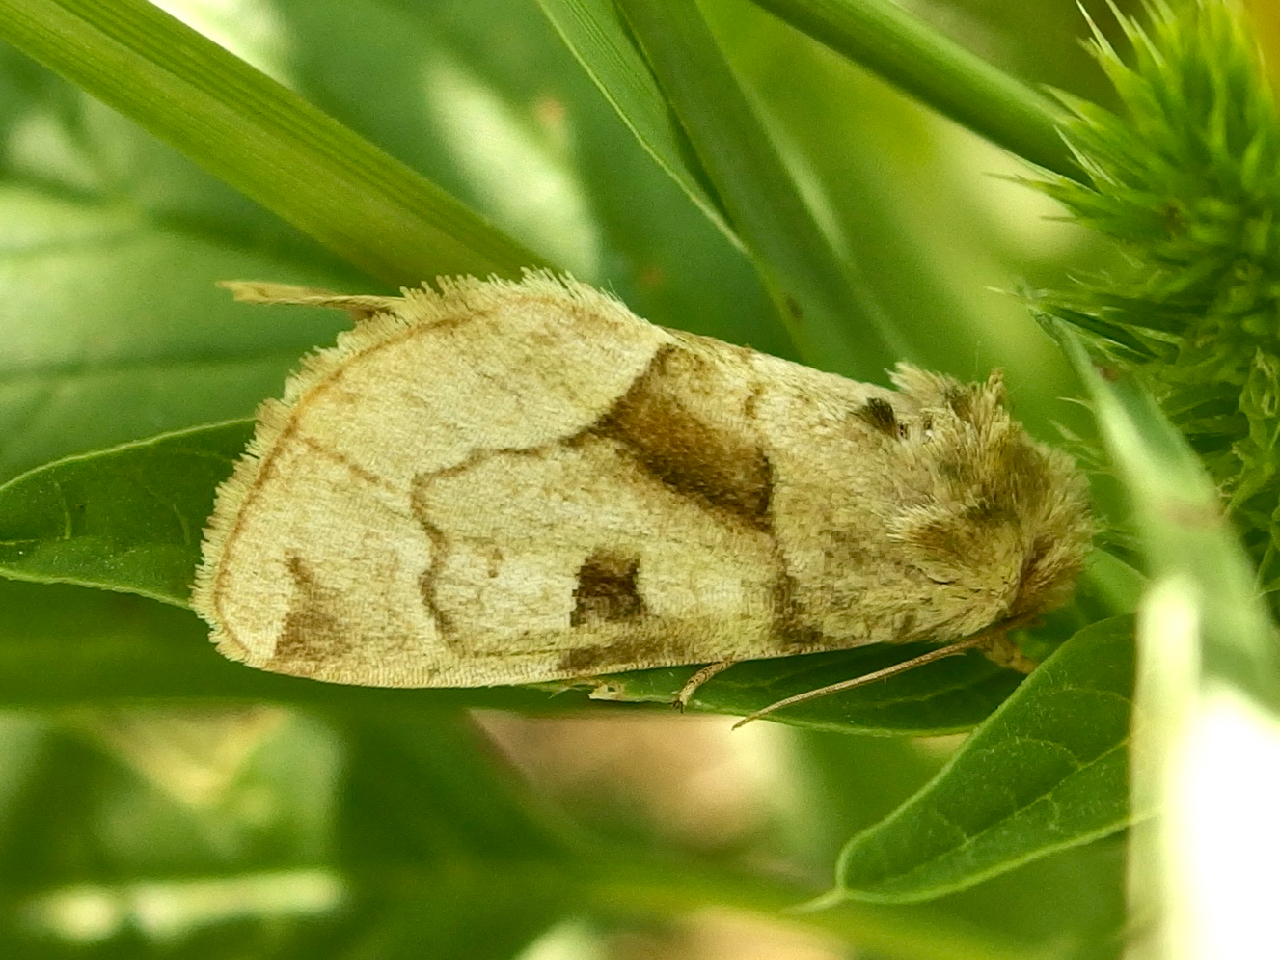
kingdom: Animalia
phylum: Arthropoda
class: Insecta
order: Lepidoptera
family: Noctuidae
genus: Oslaria
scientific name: Oslaria viridifera
